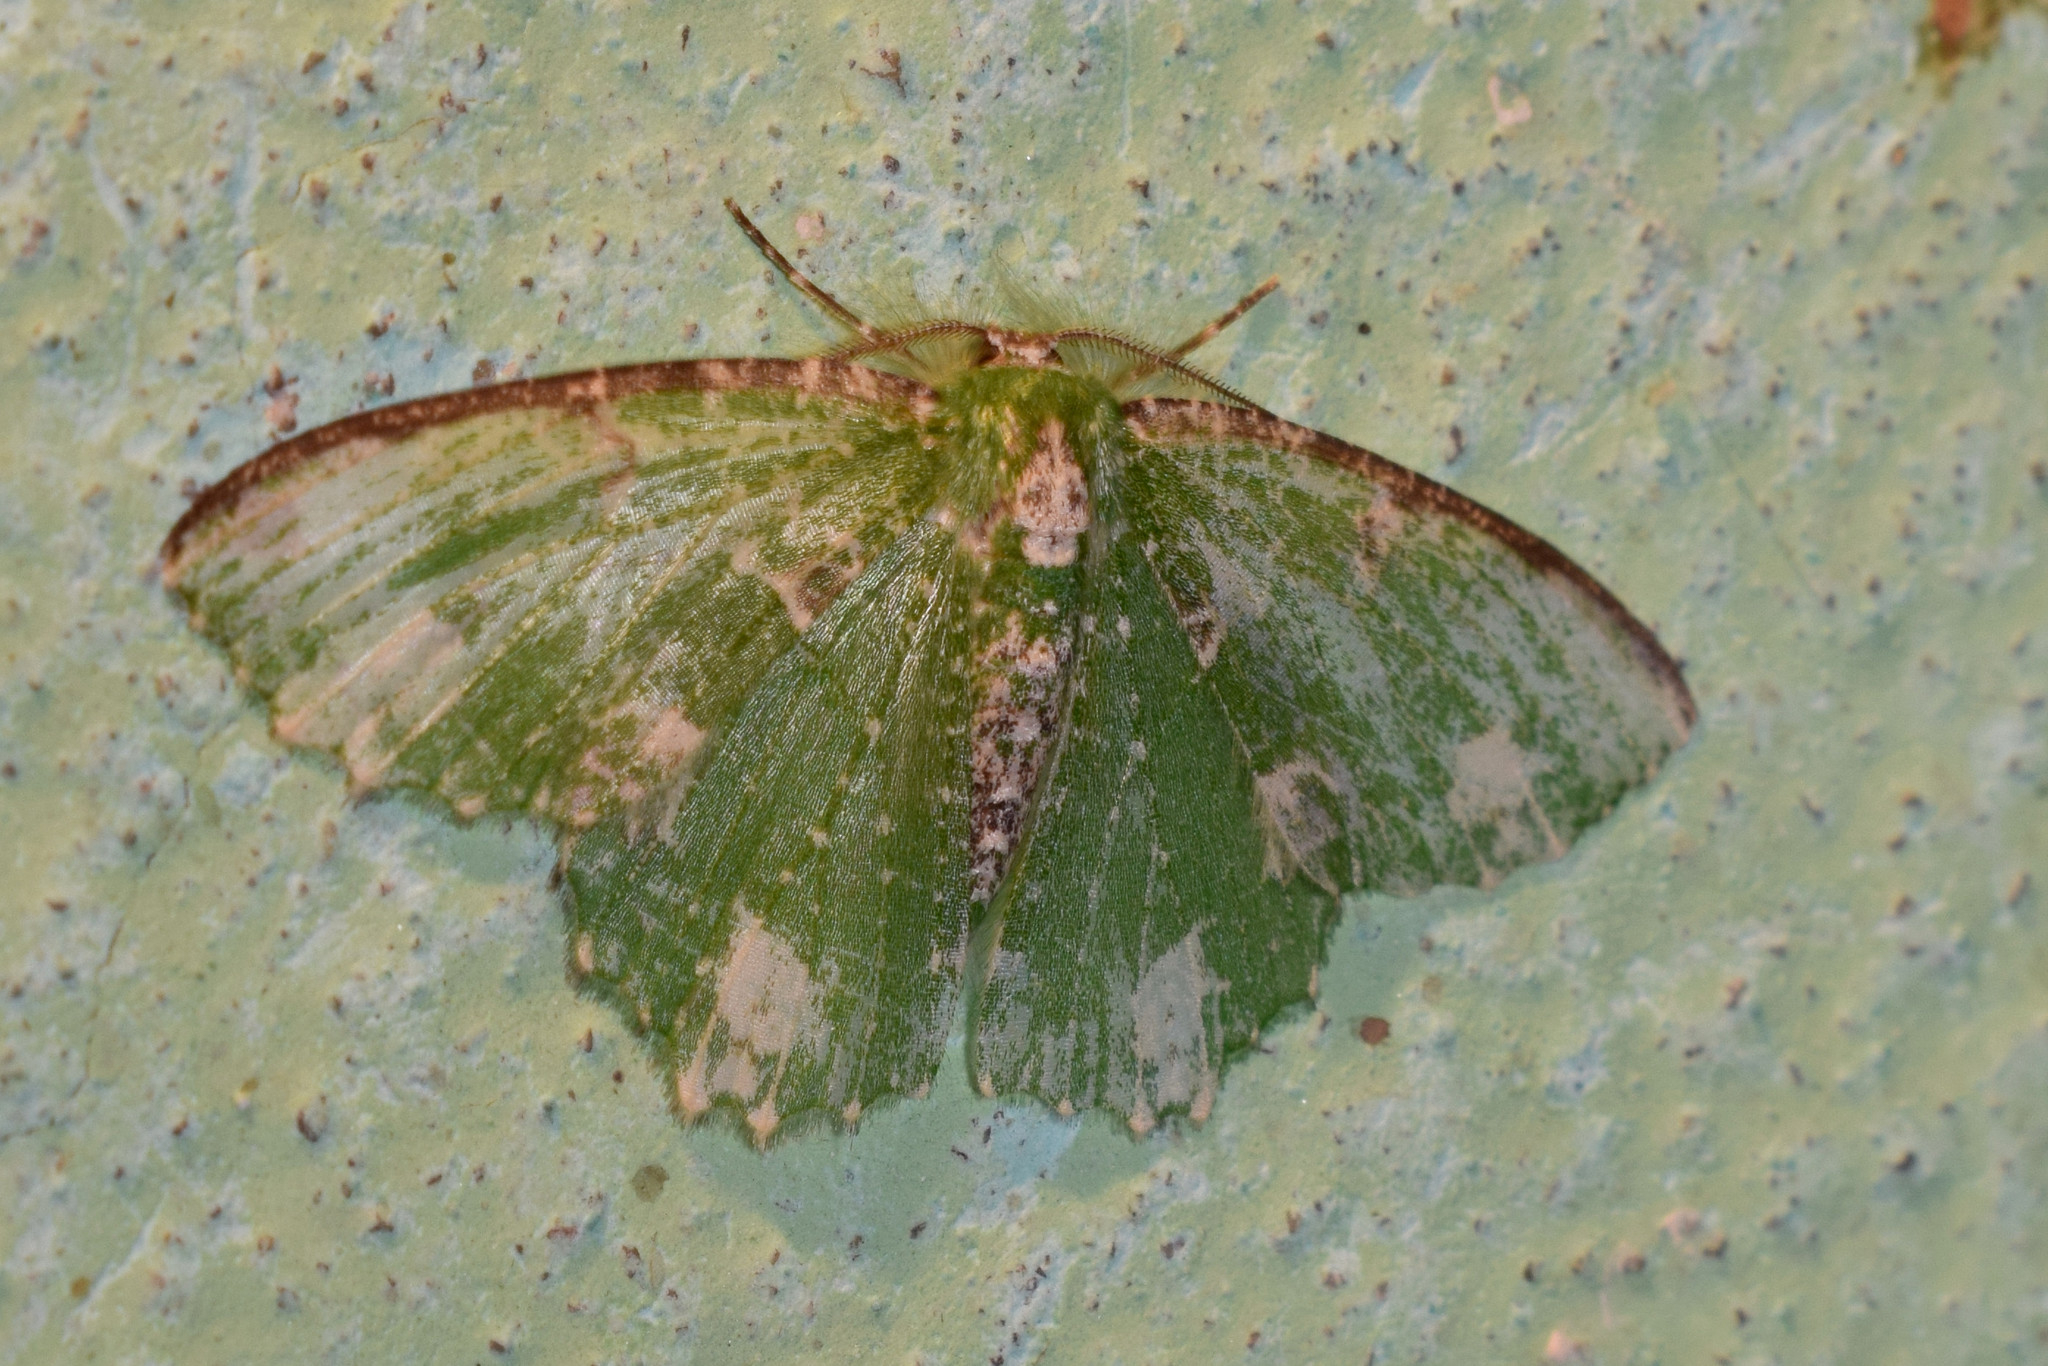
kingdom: Animalia
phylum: Arthropoda
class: Insecta
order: Lepidoptera
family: Geometridae
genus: Eucyclodes
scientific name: Eucyclodes textiloides
